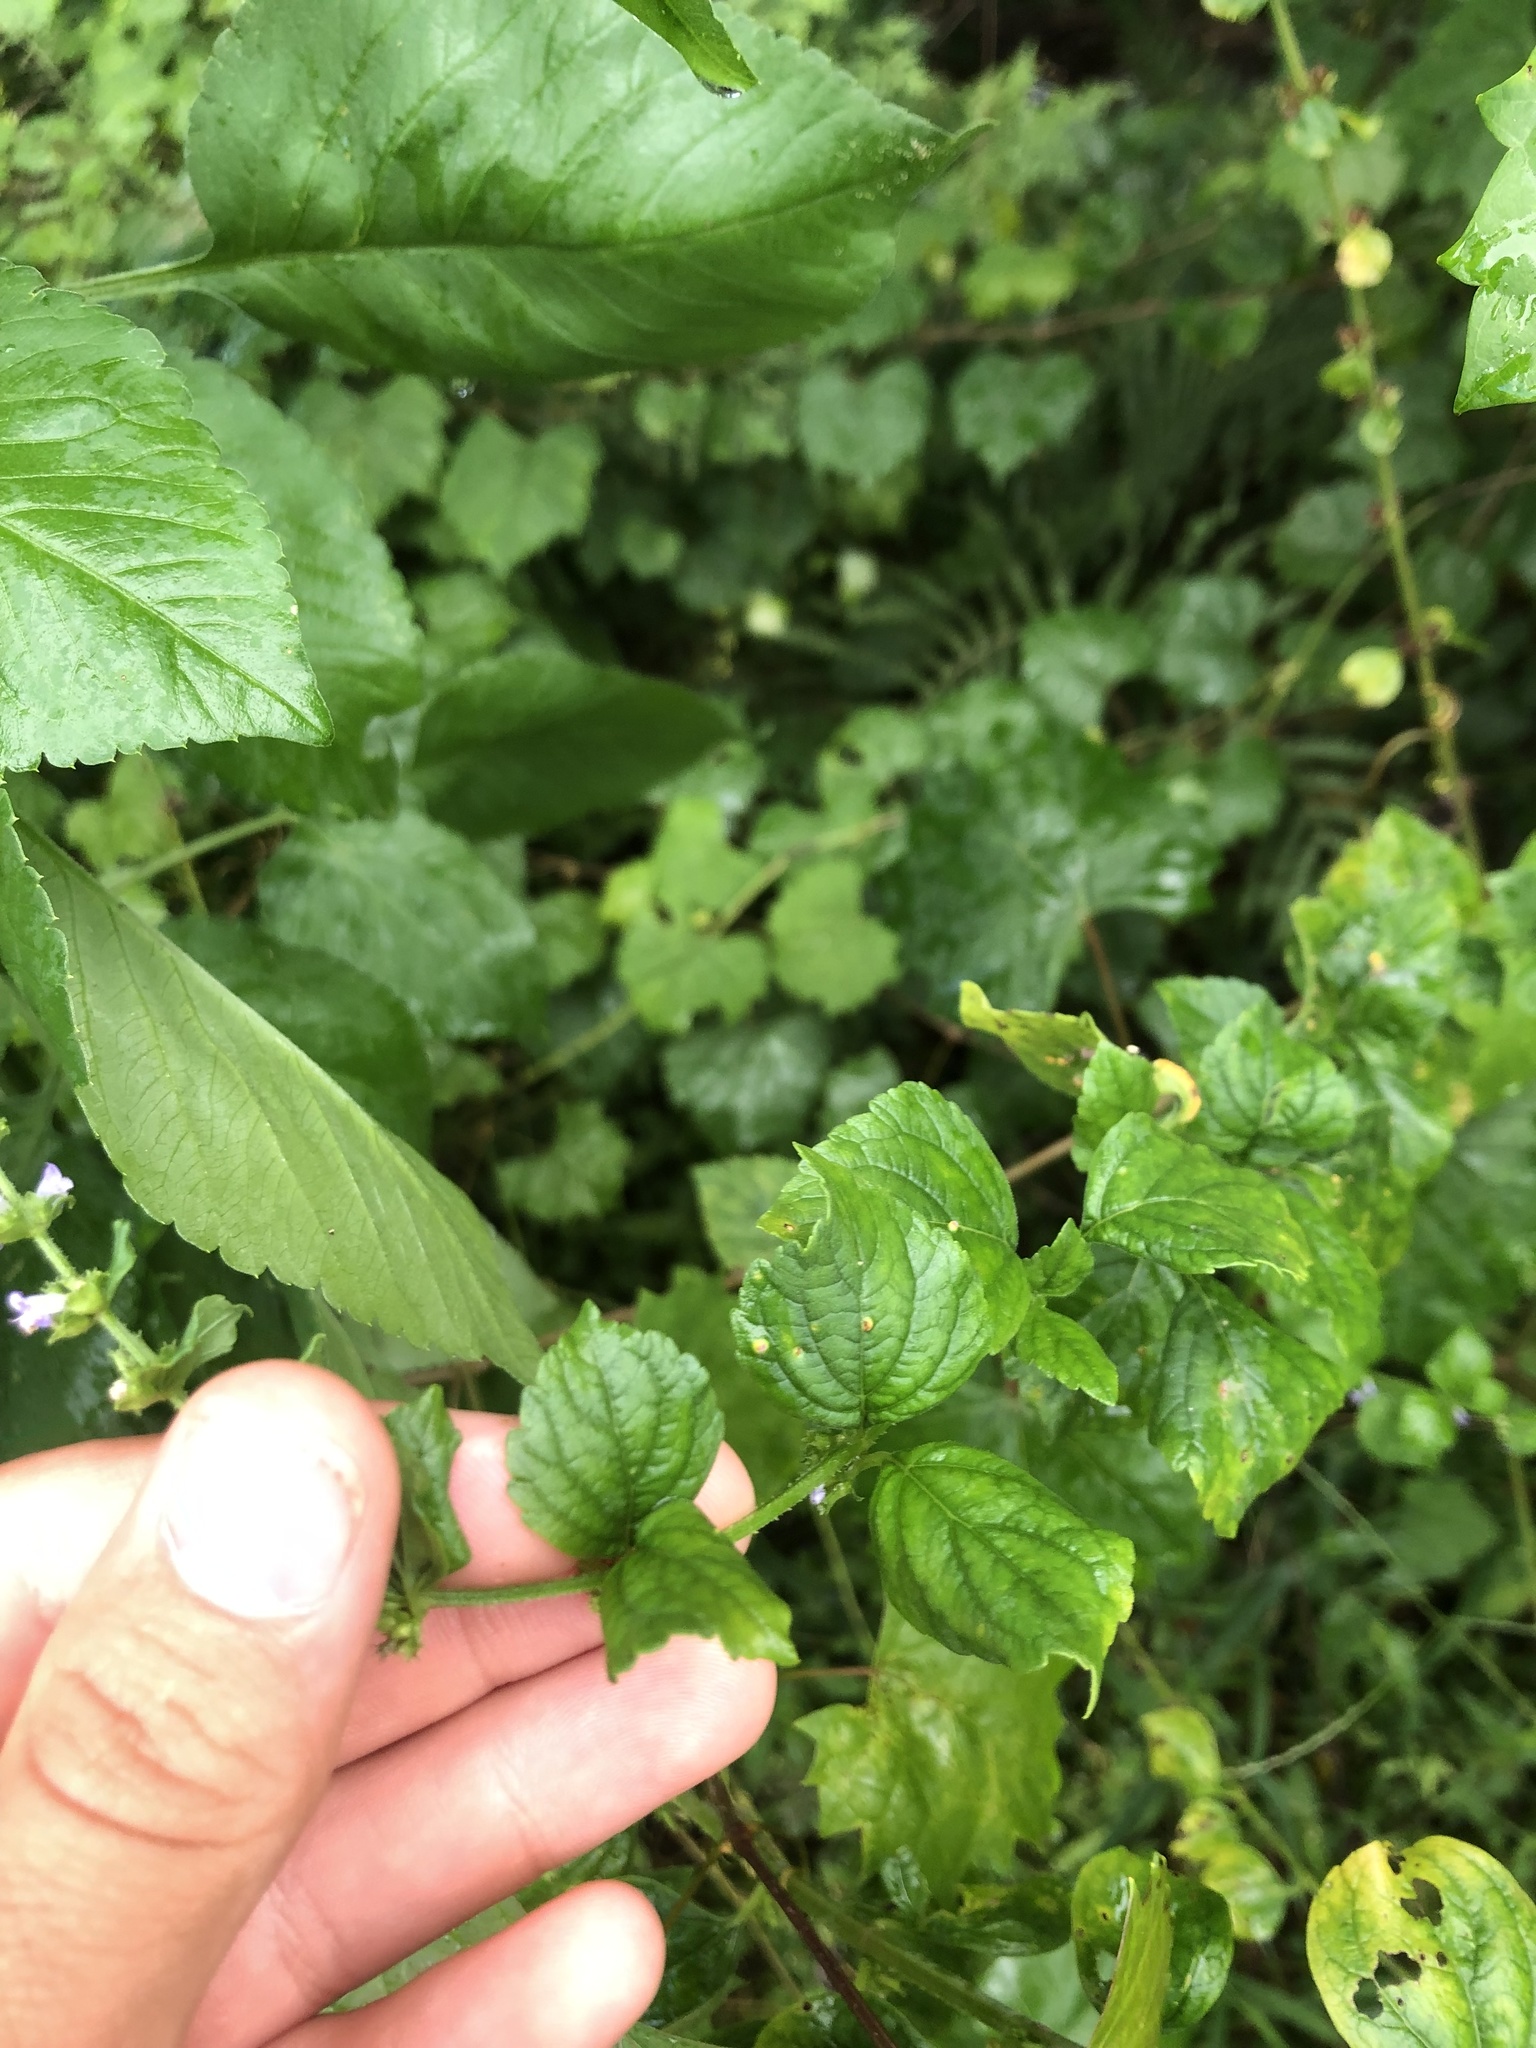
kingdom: Plantae
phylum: Tracheophyta
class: Magnoliopsida
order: Lamiales
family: Lamiaceae
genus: Cantinoa
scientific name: Cantinoa mutabilis
